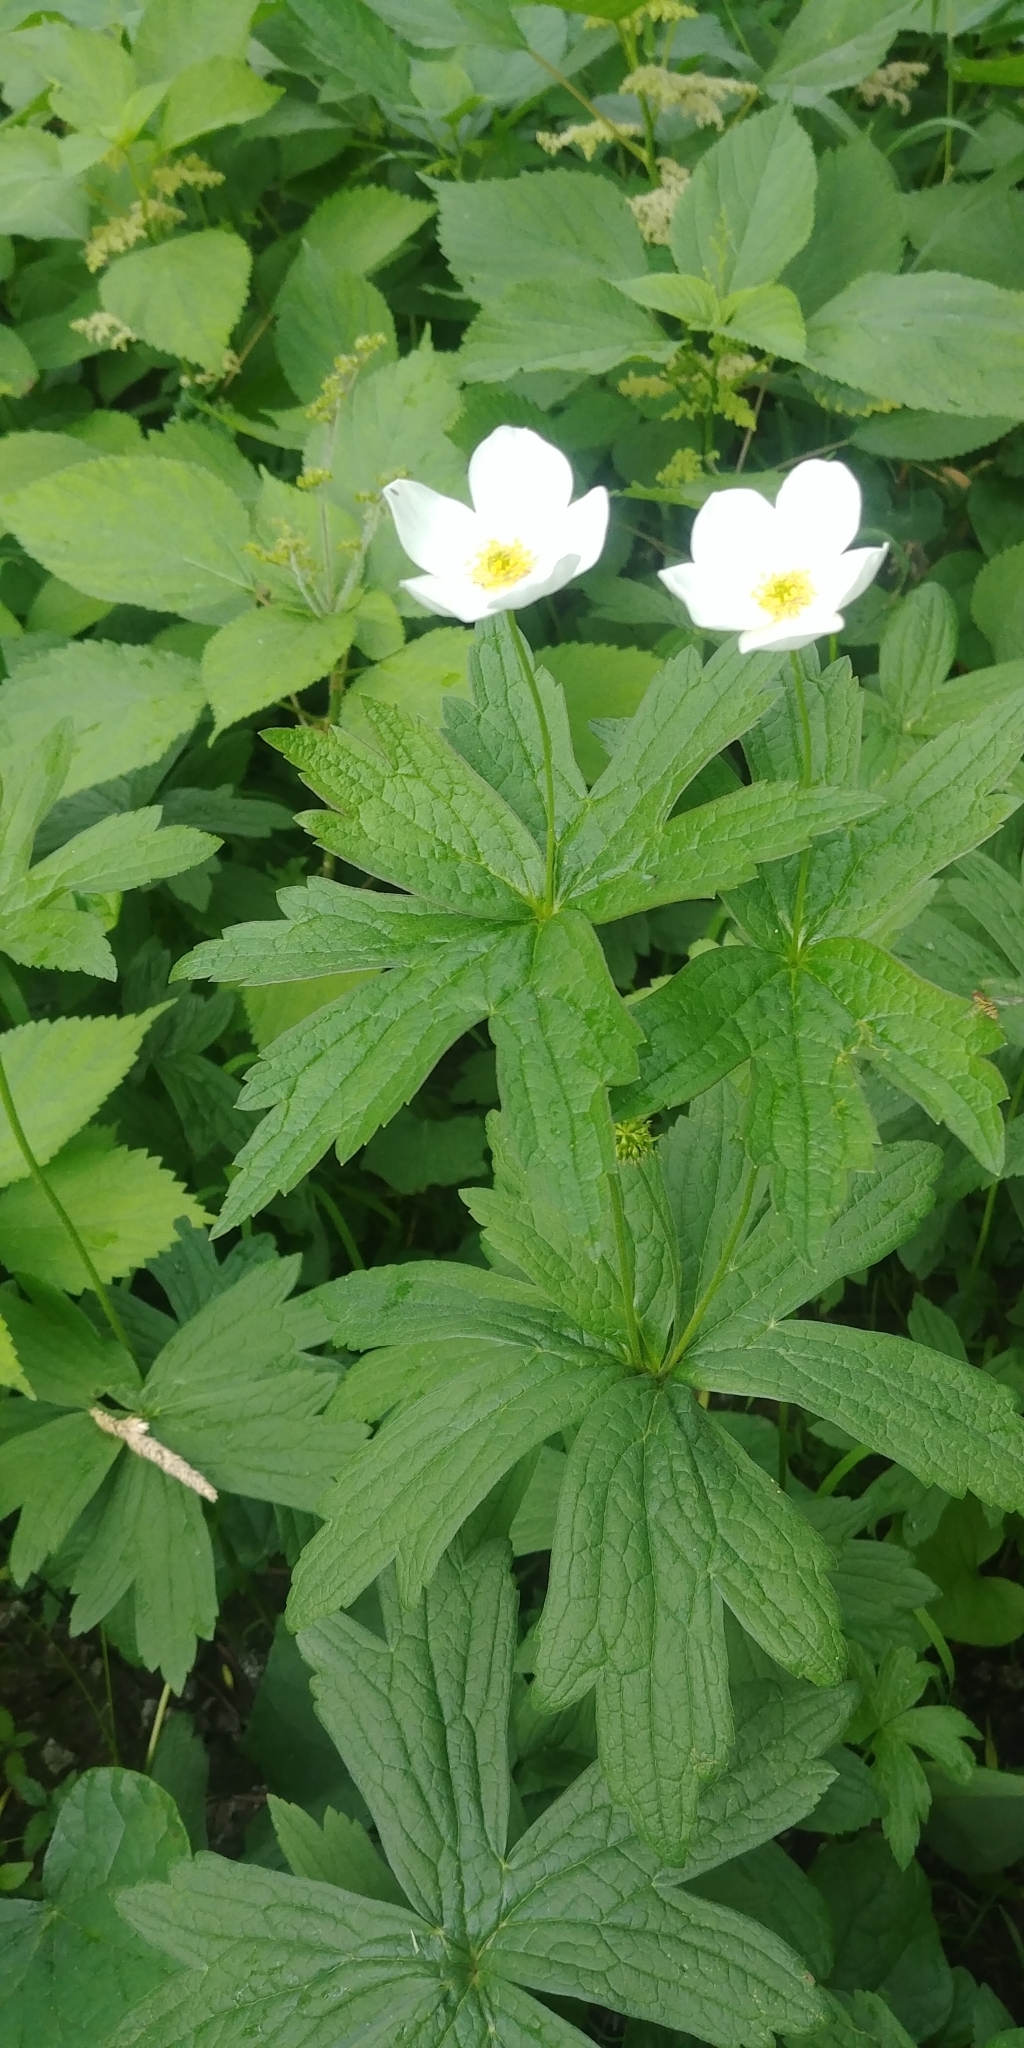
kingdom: Plantae
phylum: Tracheophyta
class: Magnoliopsida
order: Ranunculales
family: Ranunculaceae
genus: Anemonastrum
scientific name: Anemonastrum canadense
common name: Canada anemone
